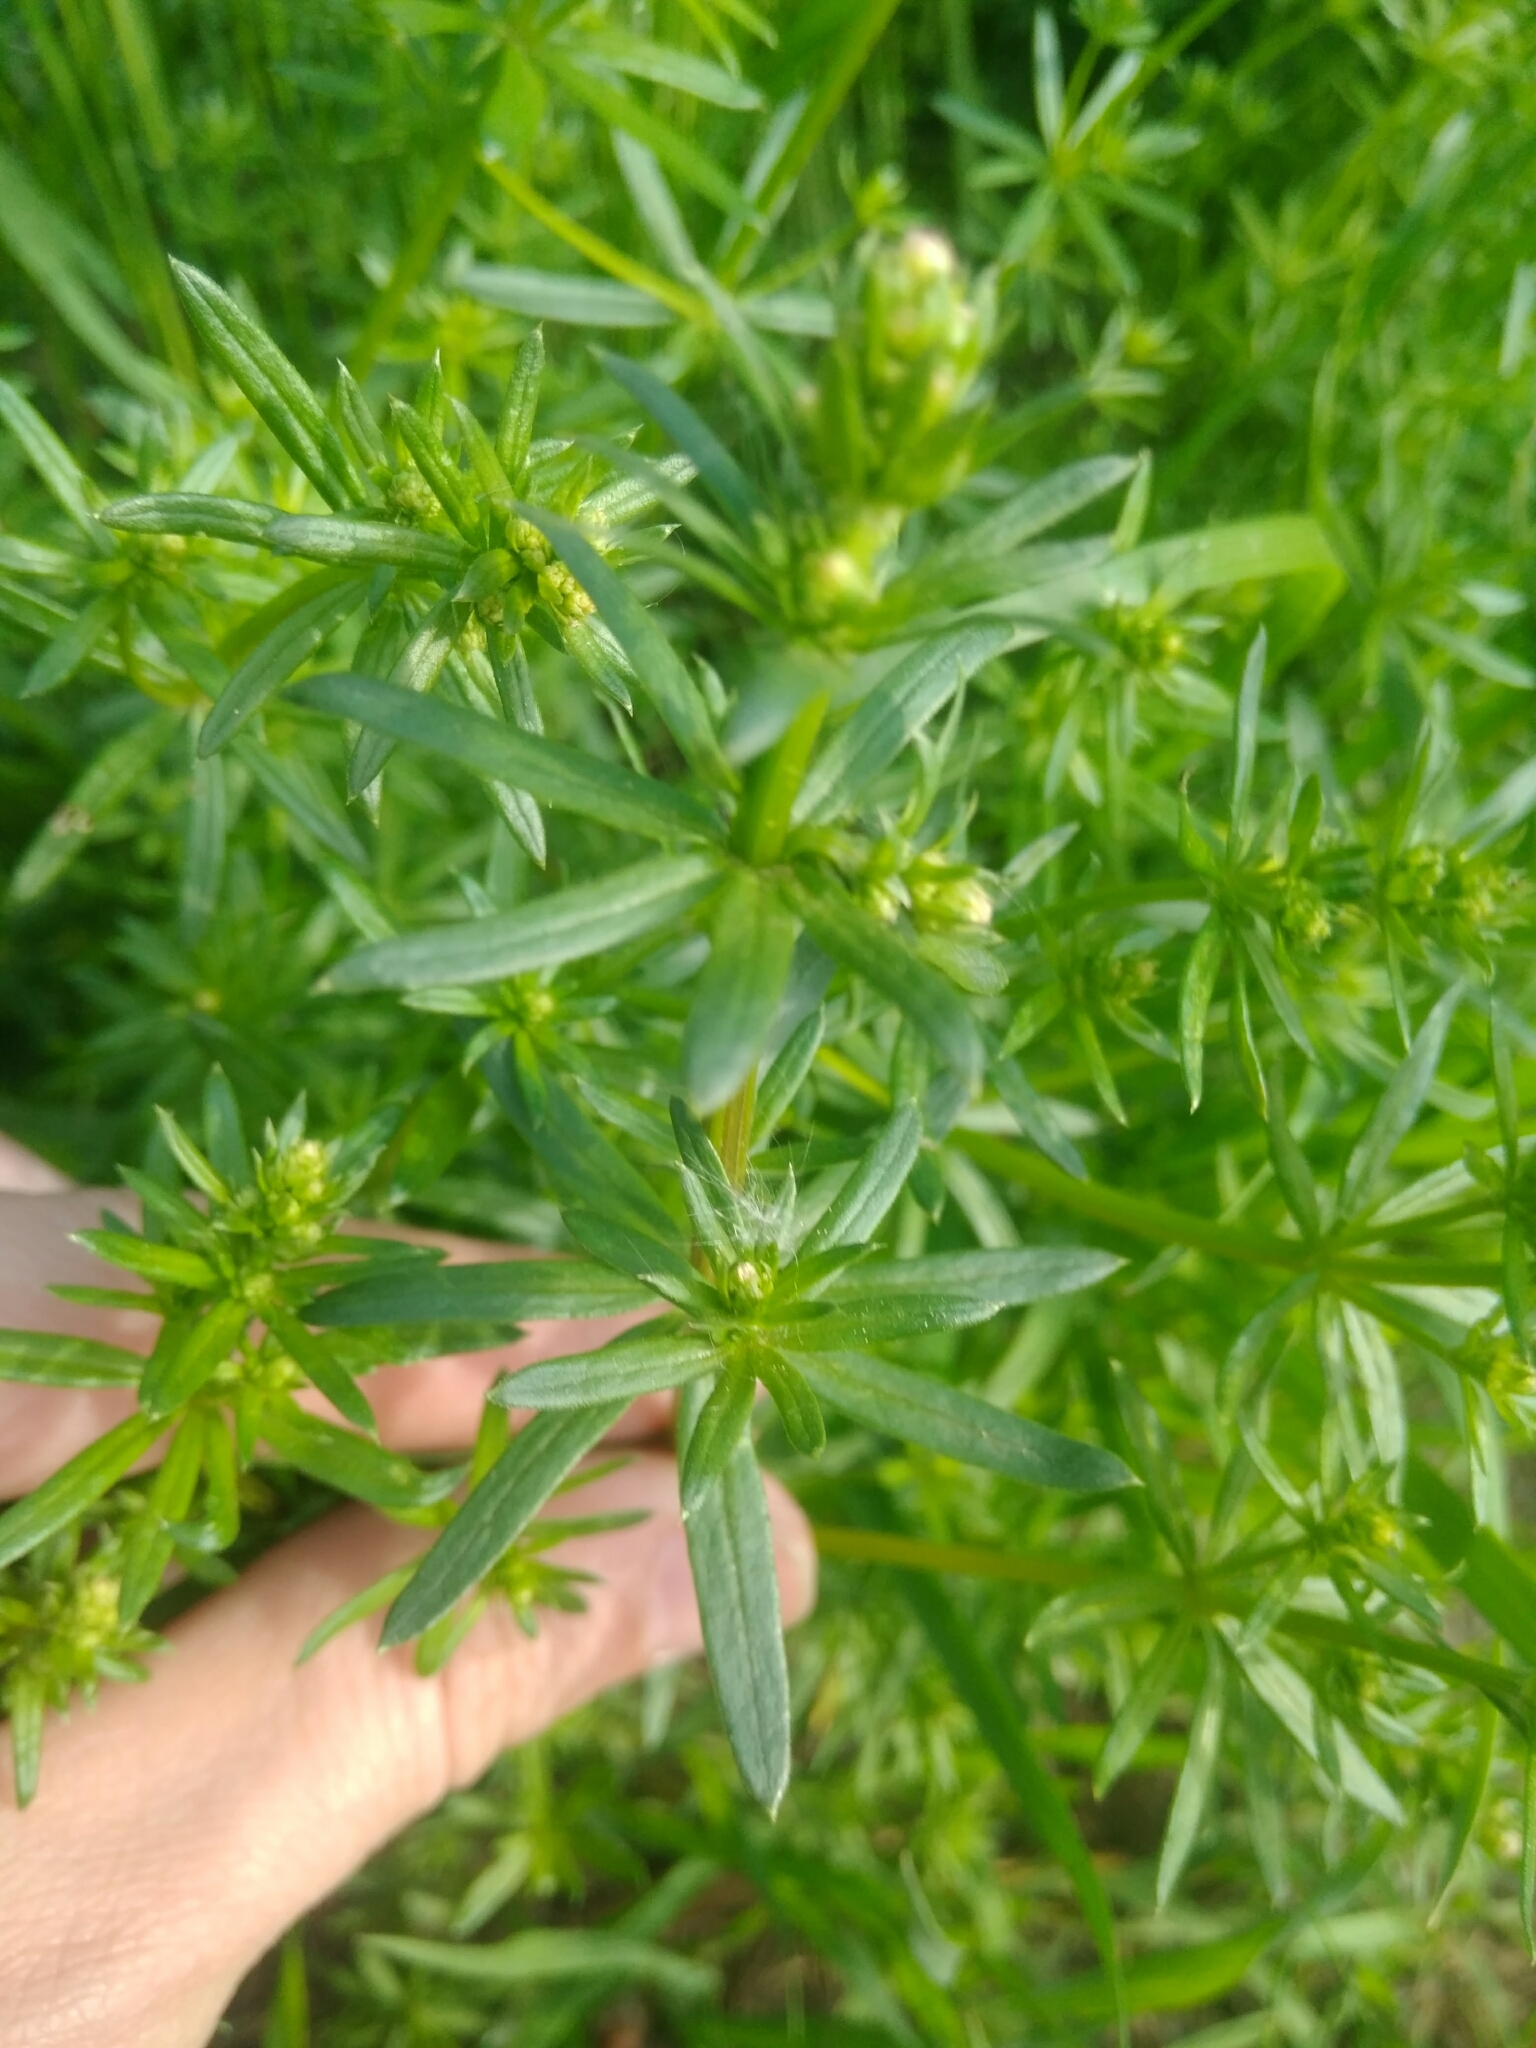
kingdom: Plantae
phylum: Tracheophyta
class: Magnoliopsida
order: Gentianales
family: Rubiaceae
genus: Galium
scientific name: Galium mollugo
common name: Hedge bedstraw
